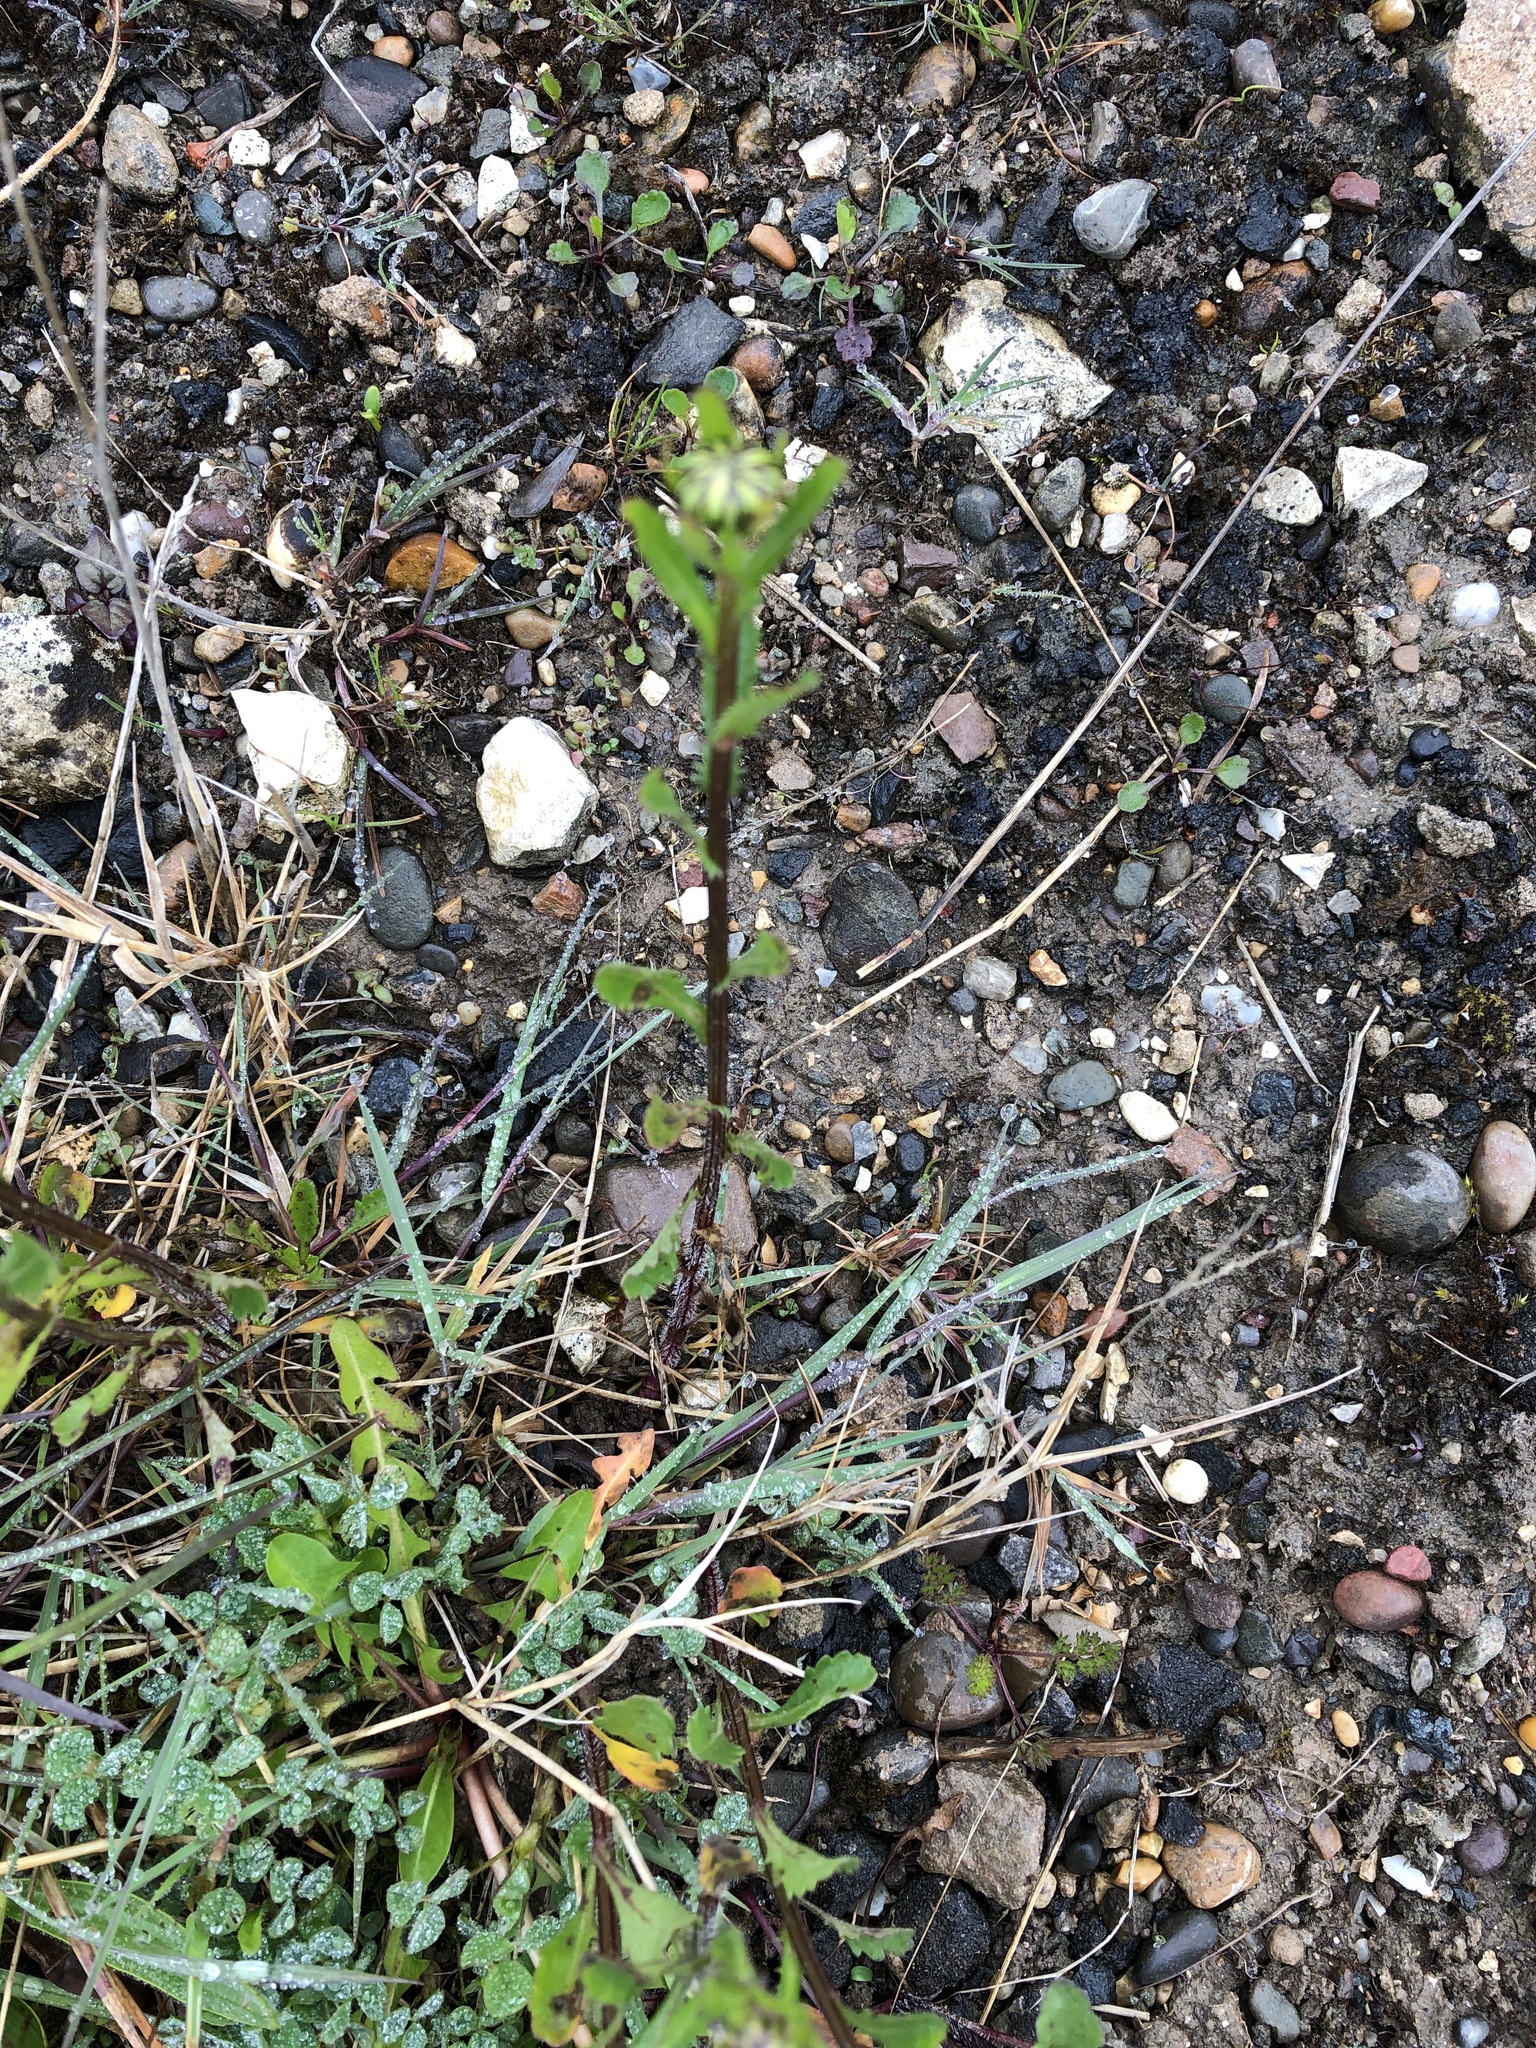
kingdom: Plantae
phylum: Tracheophyta
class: Magnoliopsida
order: Asterales
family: Asteraceae
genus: Leucanthemum
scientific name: Leucanthemum vulgare
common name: Oxeye daisy
